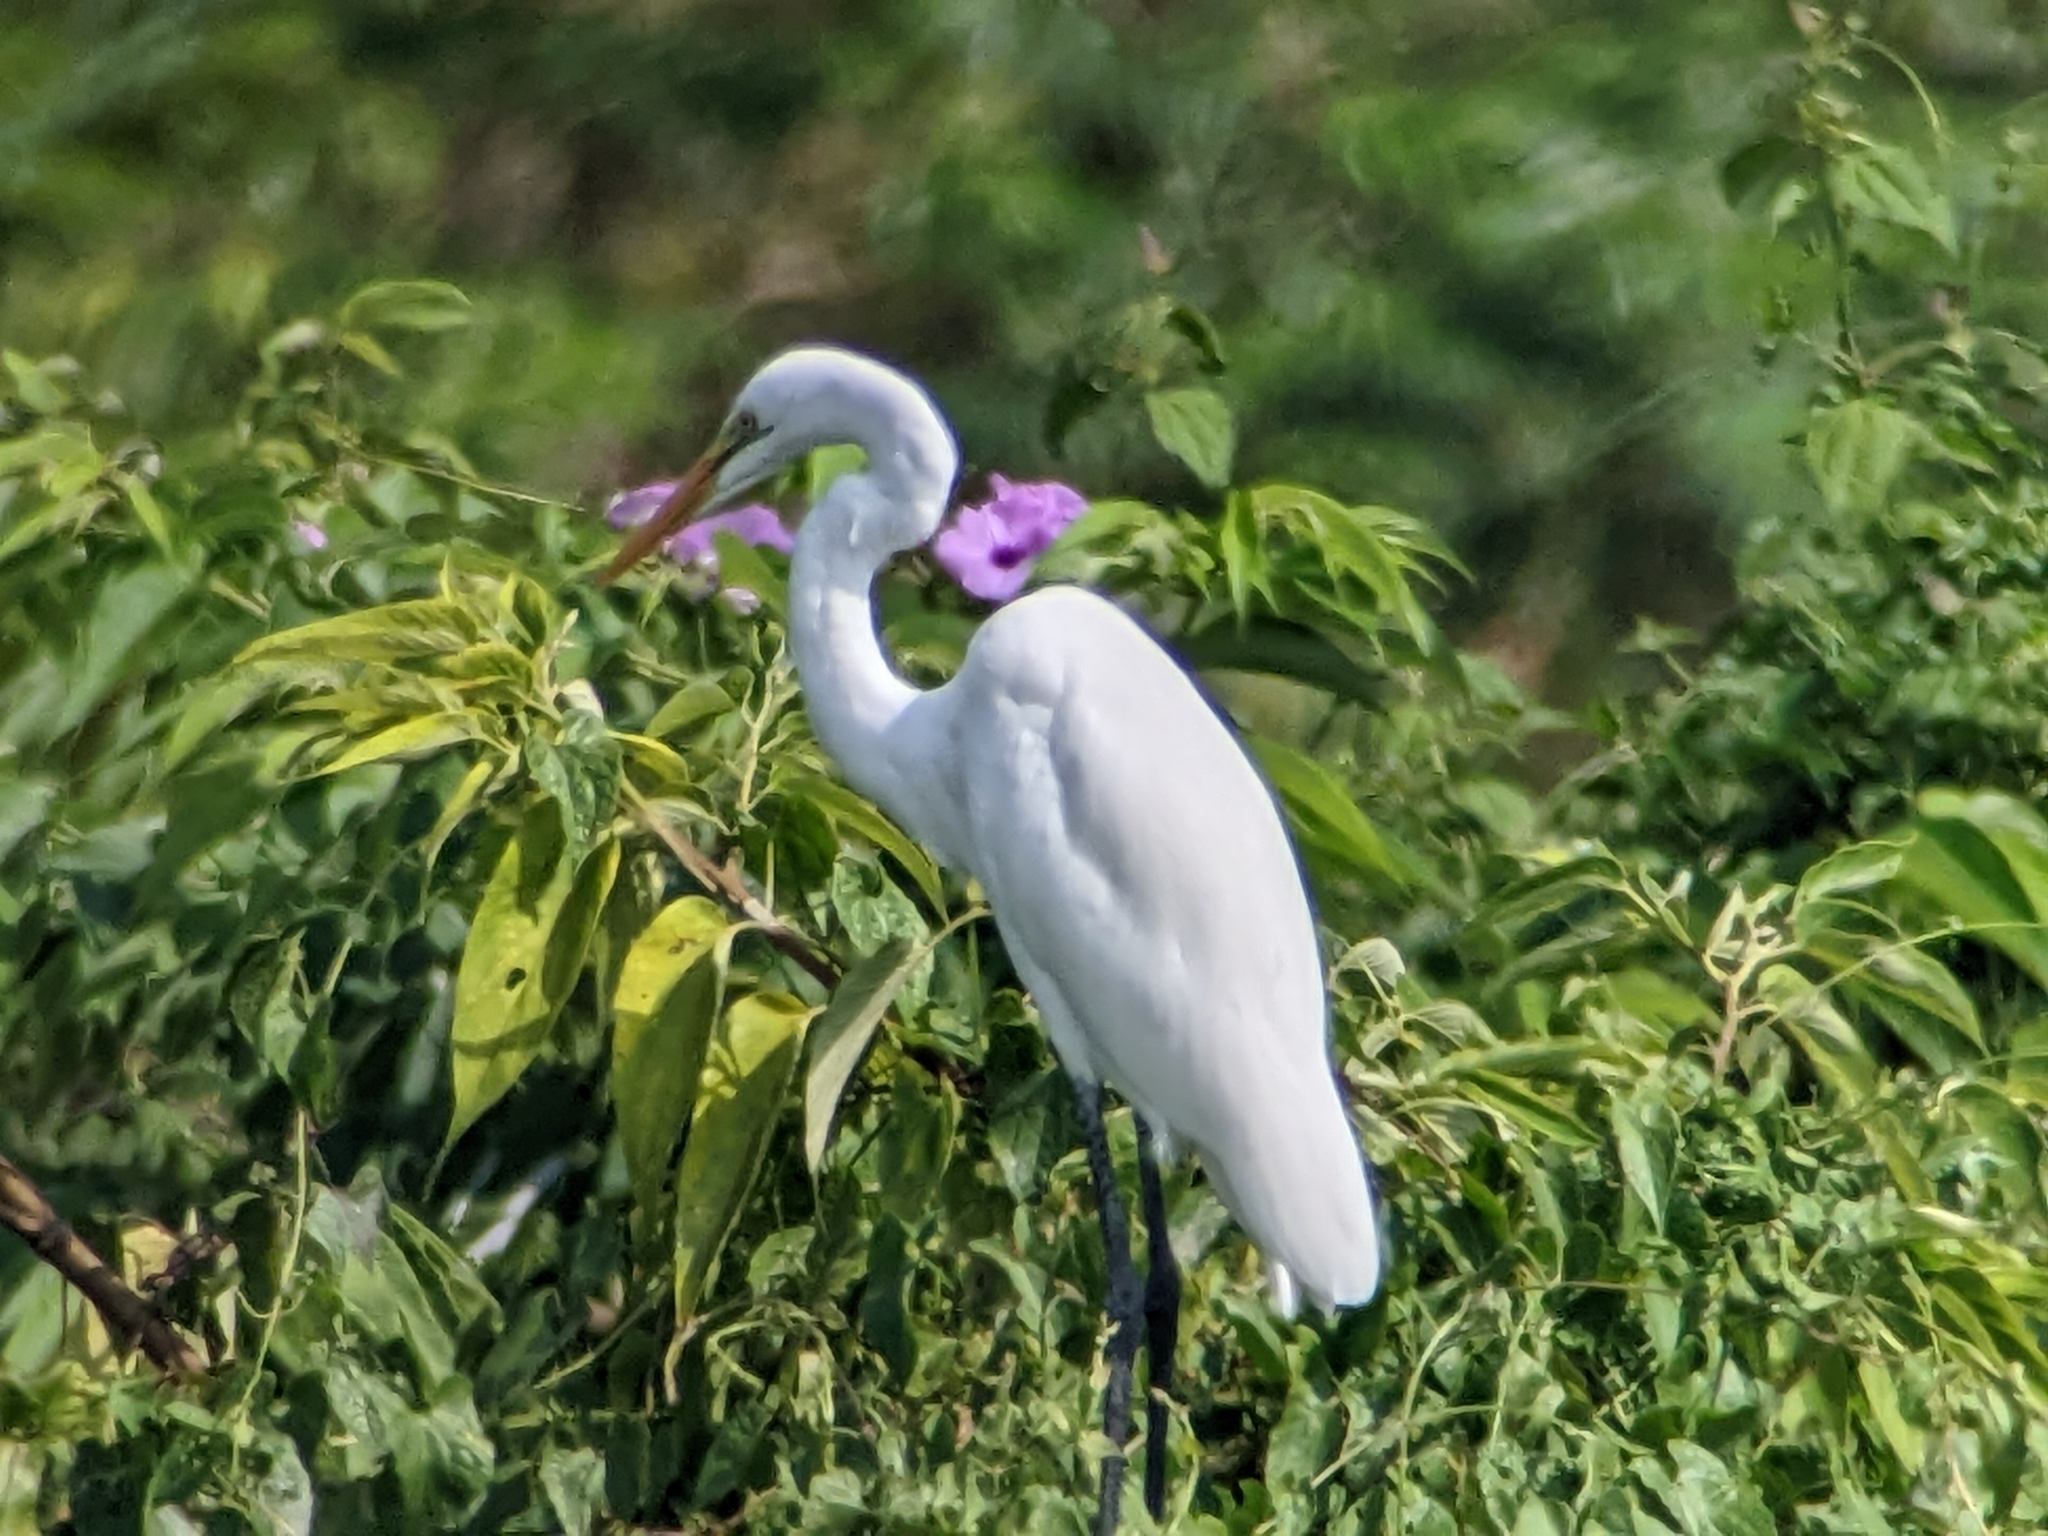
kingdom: Animalia
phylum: Chordata
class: Aves
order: Pelecaniformes
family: Ardeidae
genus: Ardea
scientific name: Ardea alba
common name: Great egret
